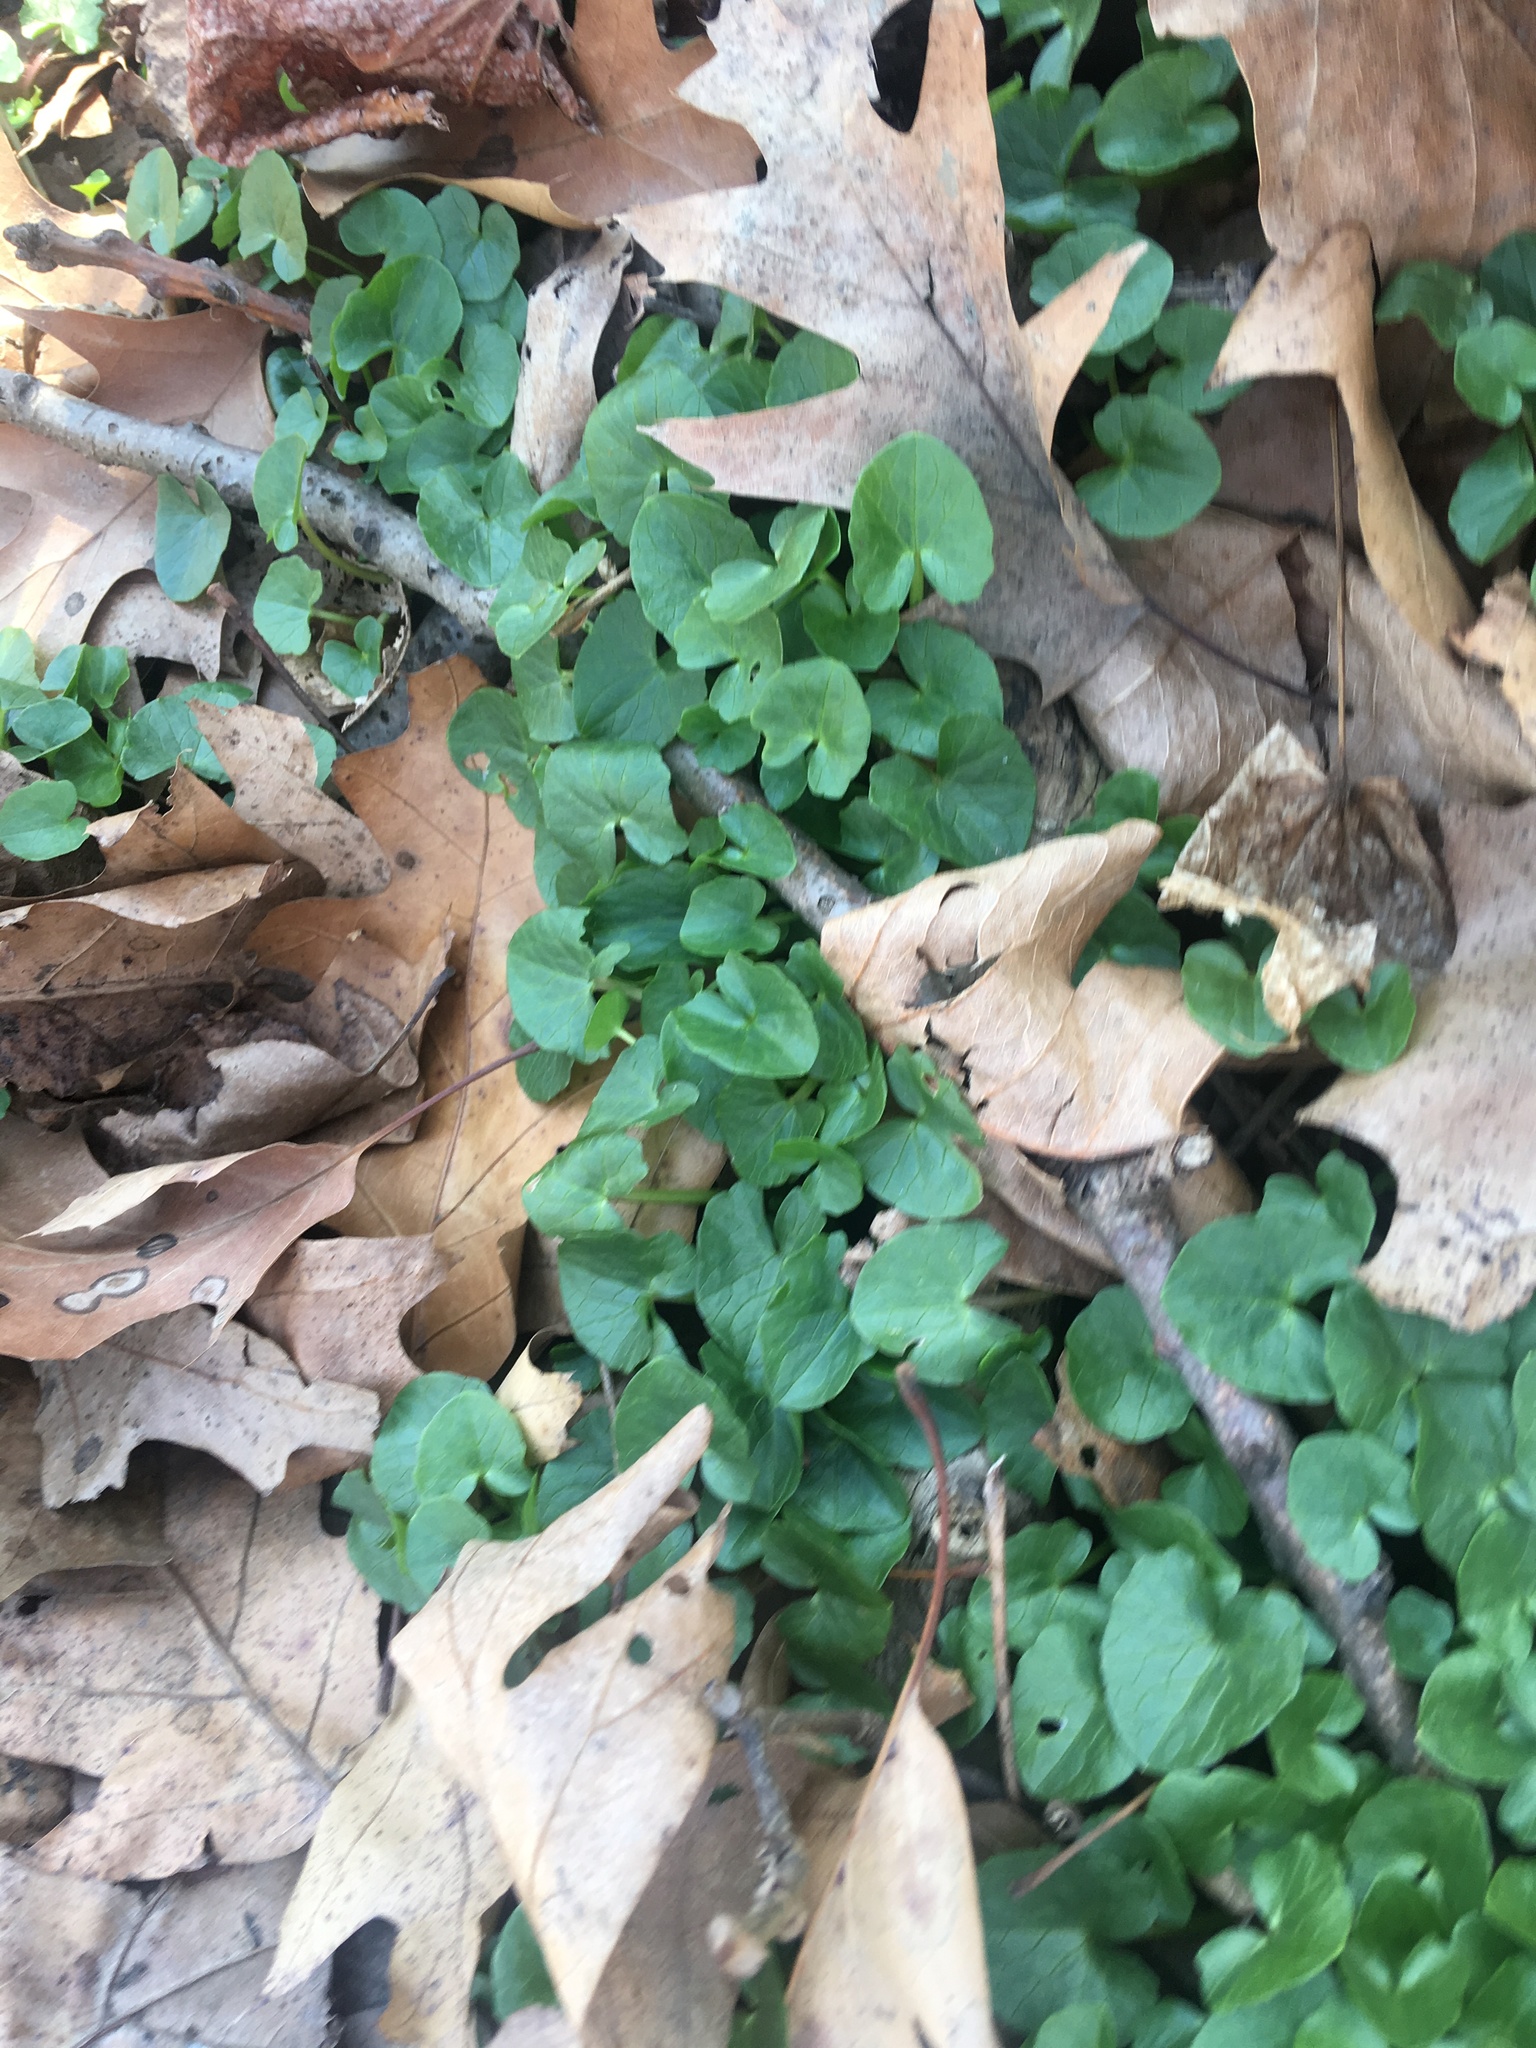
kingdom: Plantae
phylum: Tracheophyta
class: Magnoliopsida
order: Ranunculales
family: Ranunculaceae
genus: Ficaria
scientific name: Ficaria verna
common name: Lesser celandine
